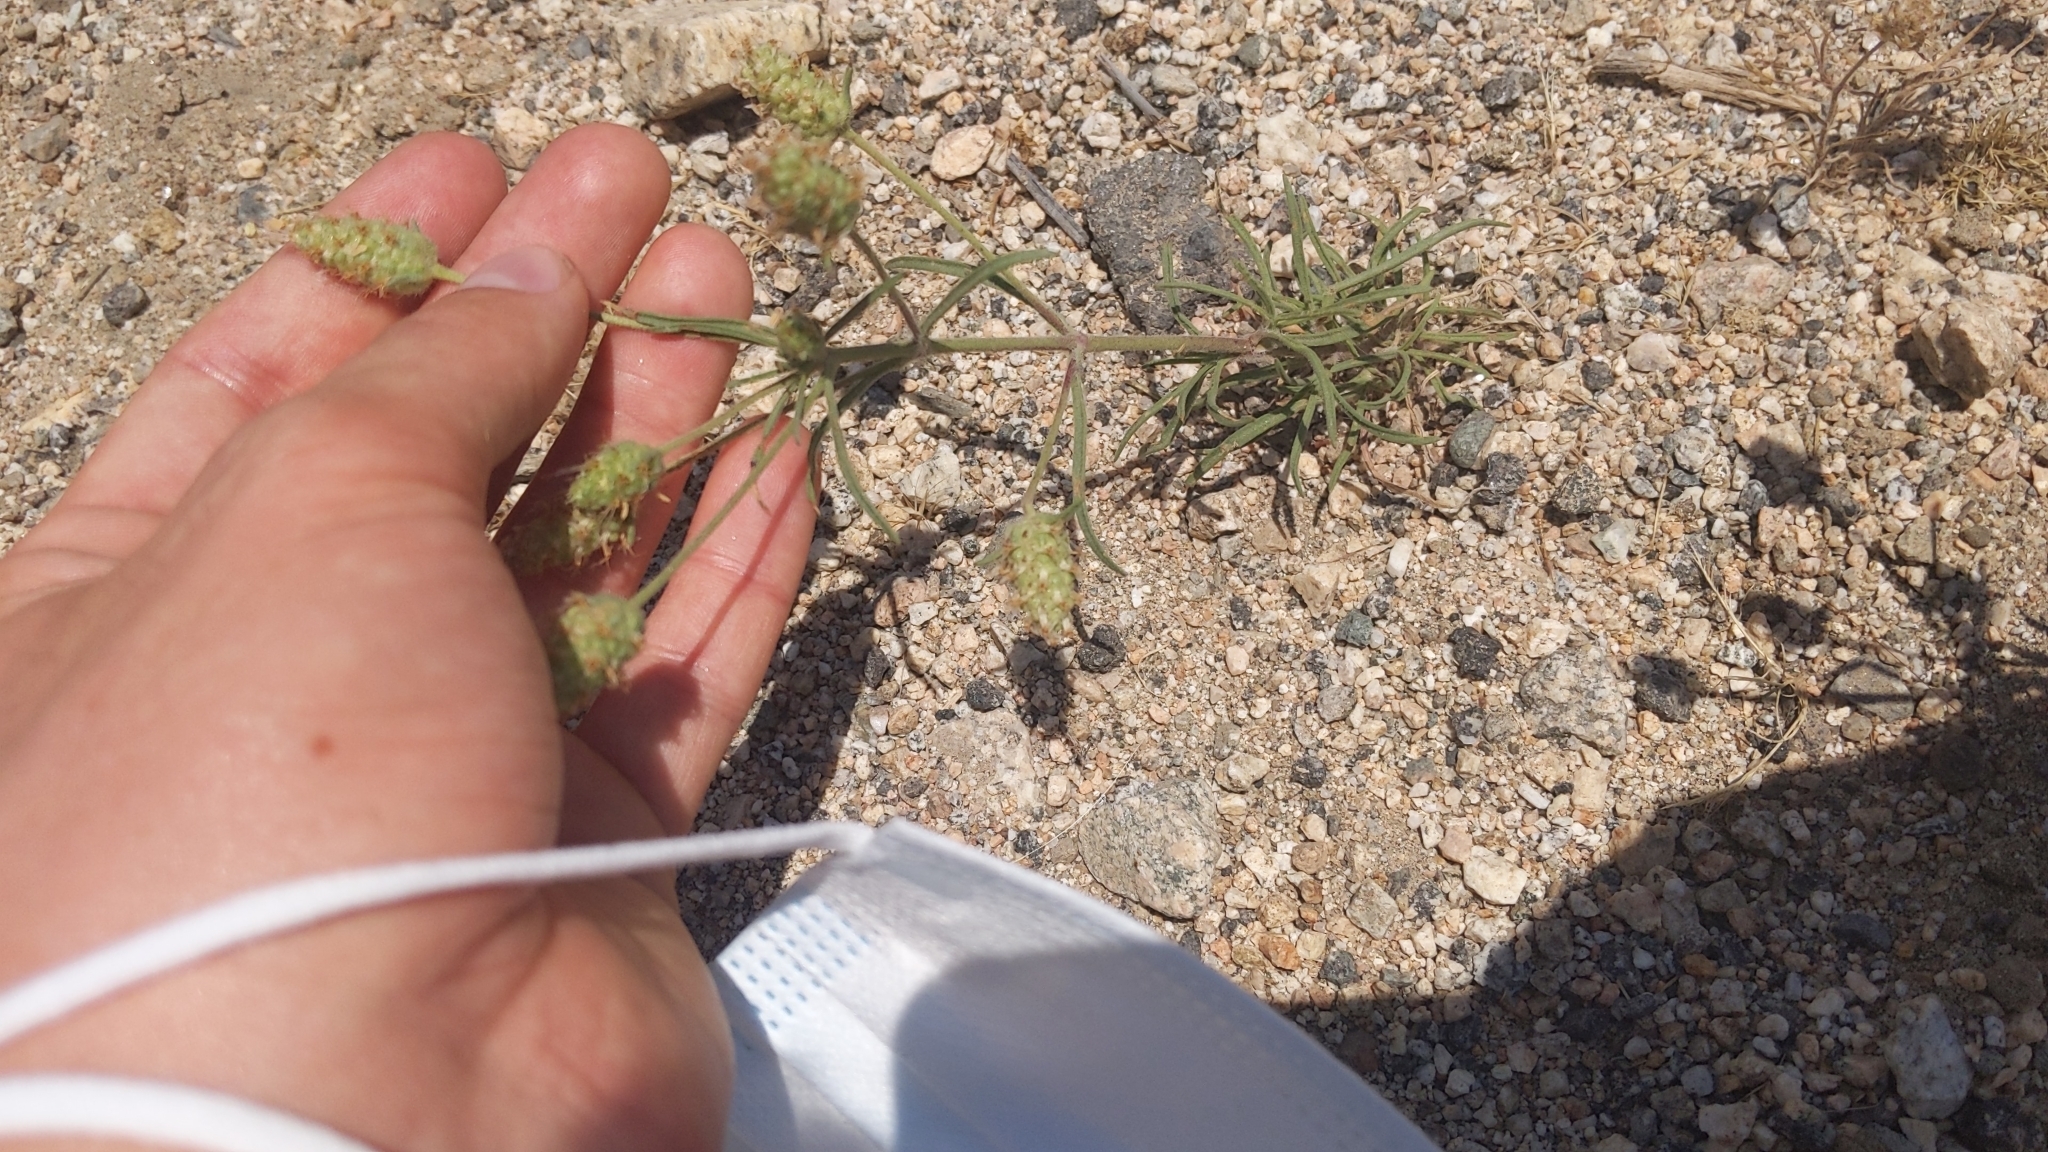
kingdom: Plantae
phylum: Tracheophyta
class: Magnoliopsida
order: Lamiales
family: Plantaginaceae
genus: Plantago
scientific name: Plantago arenaria
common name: Branched plantain
